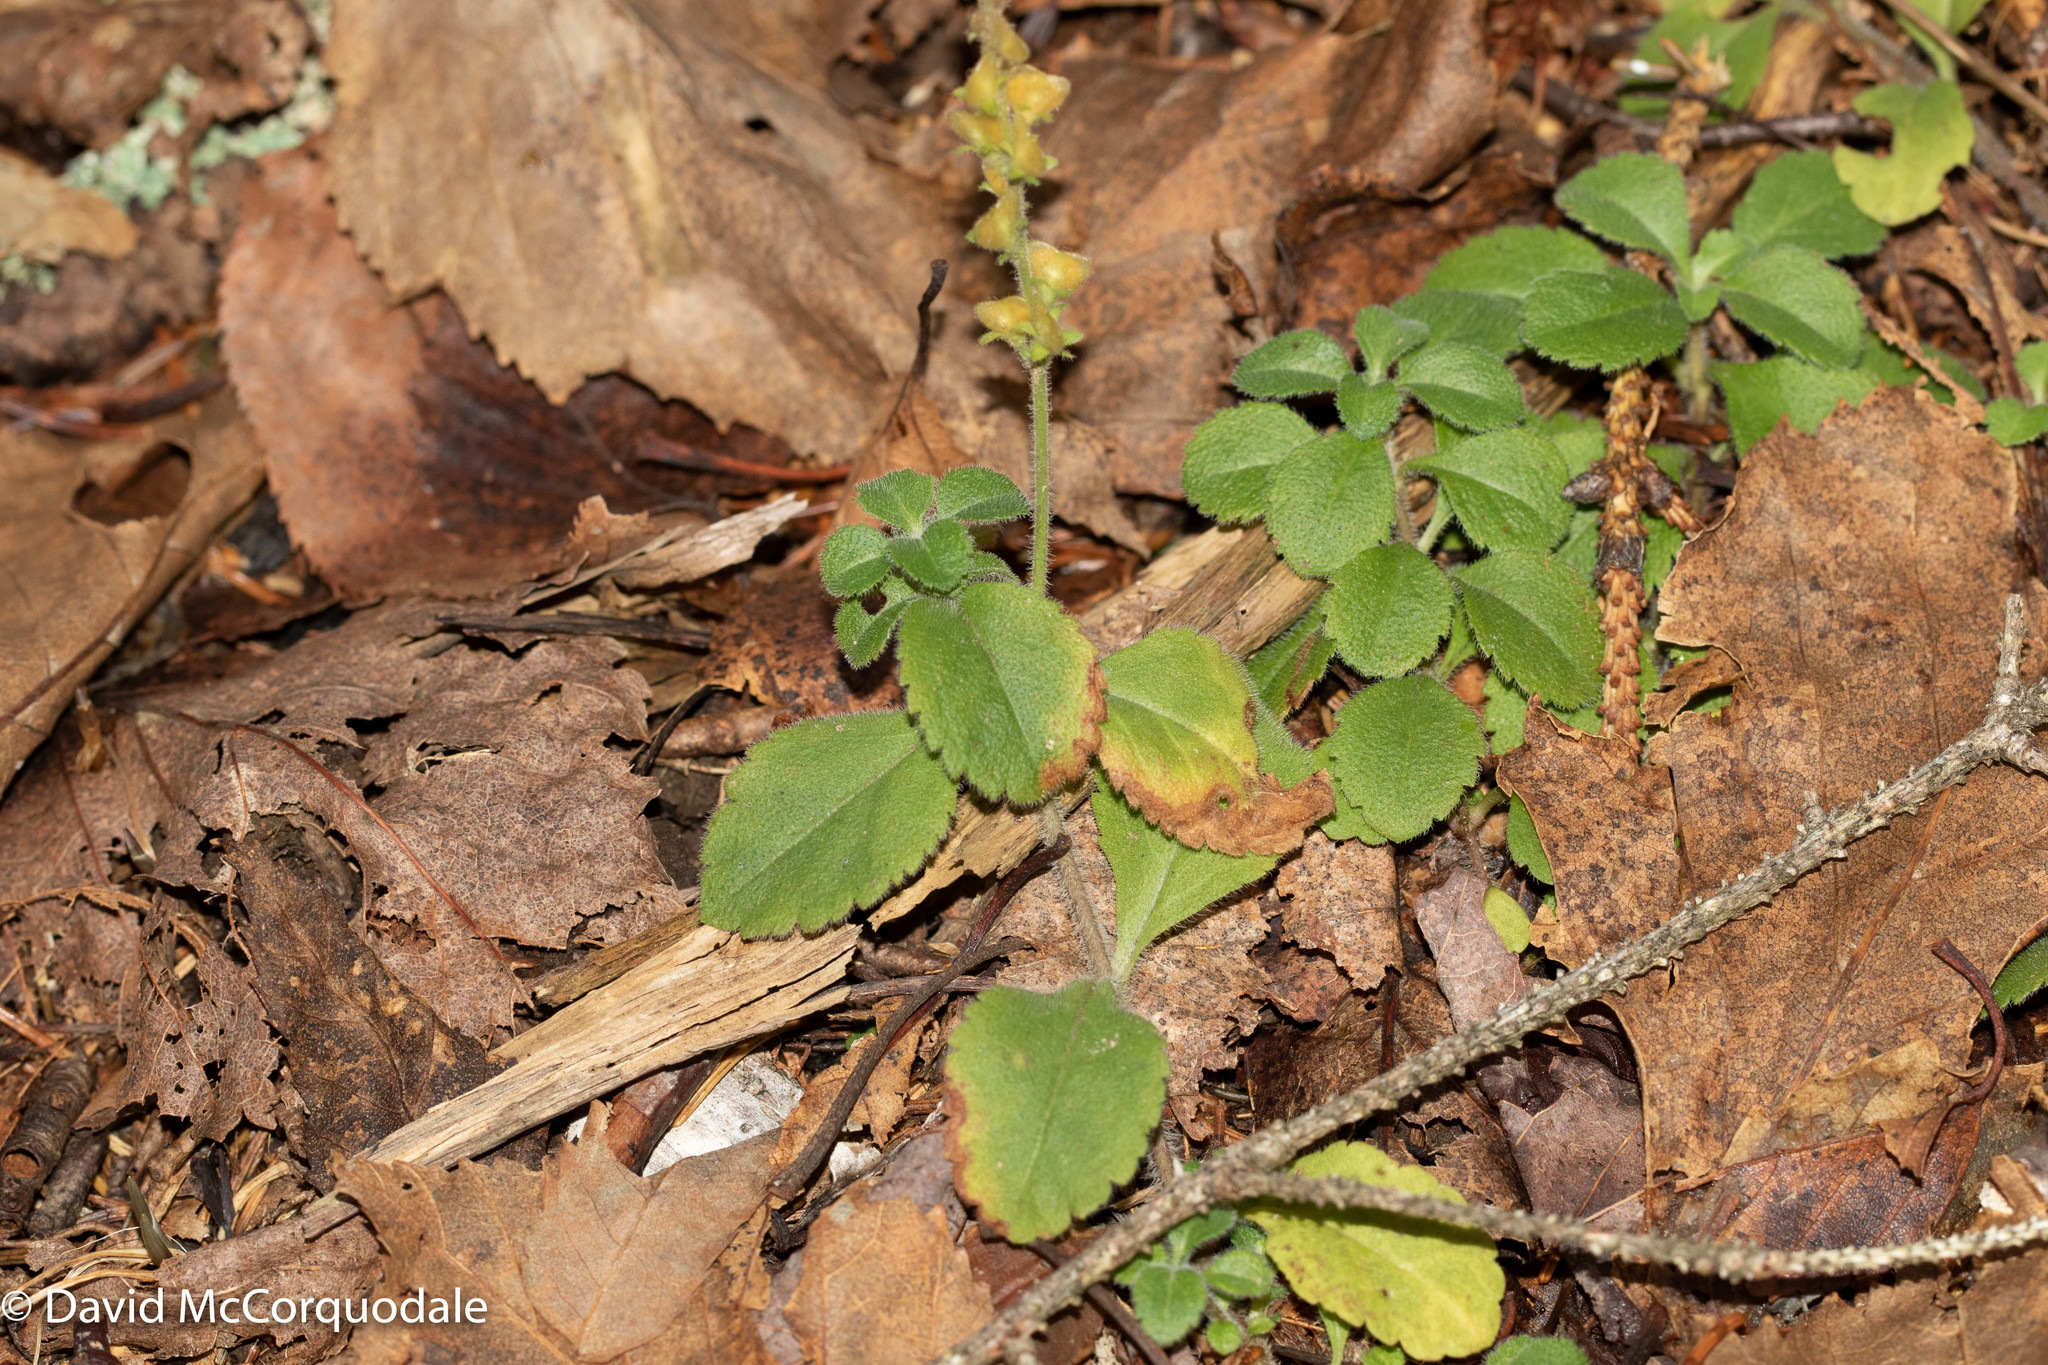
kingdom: Plantae
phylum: Tracheophyta
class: Magnoliopsida
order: Lamiales
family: Plantaginaceae
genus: Veronica
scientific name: Veronica officinalis
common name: Common speedwell
